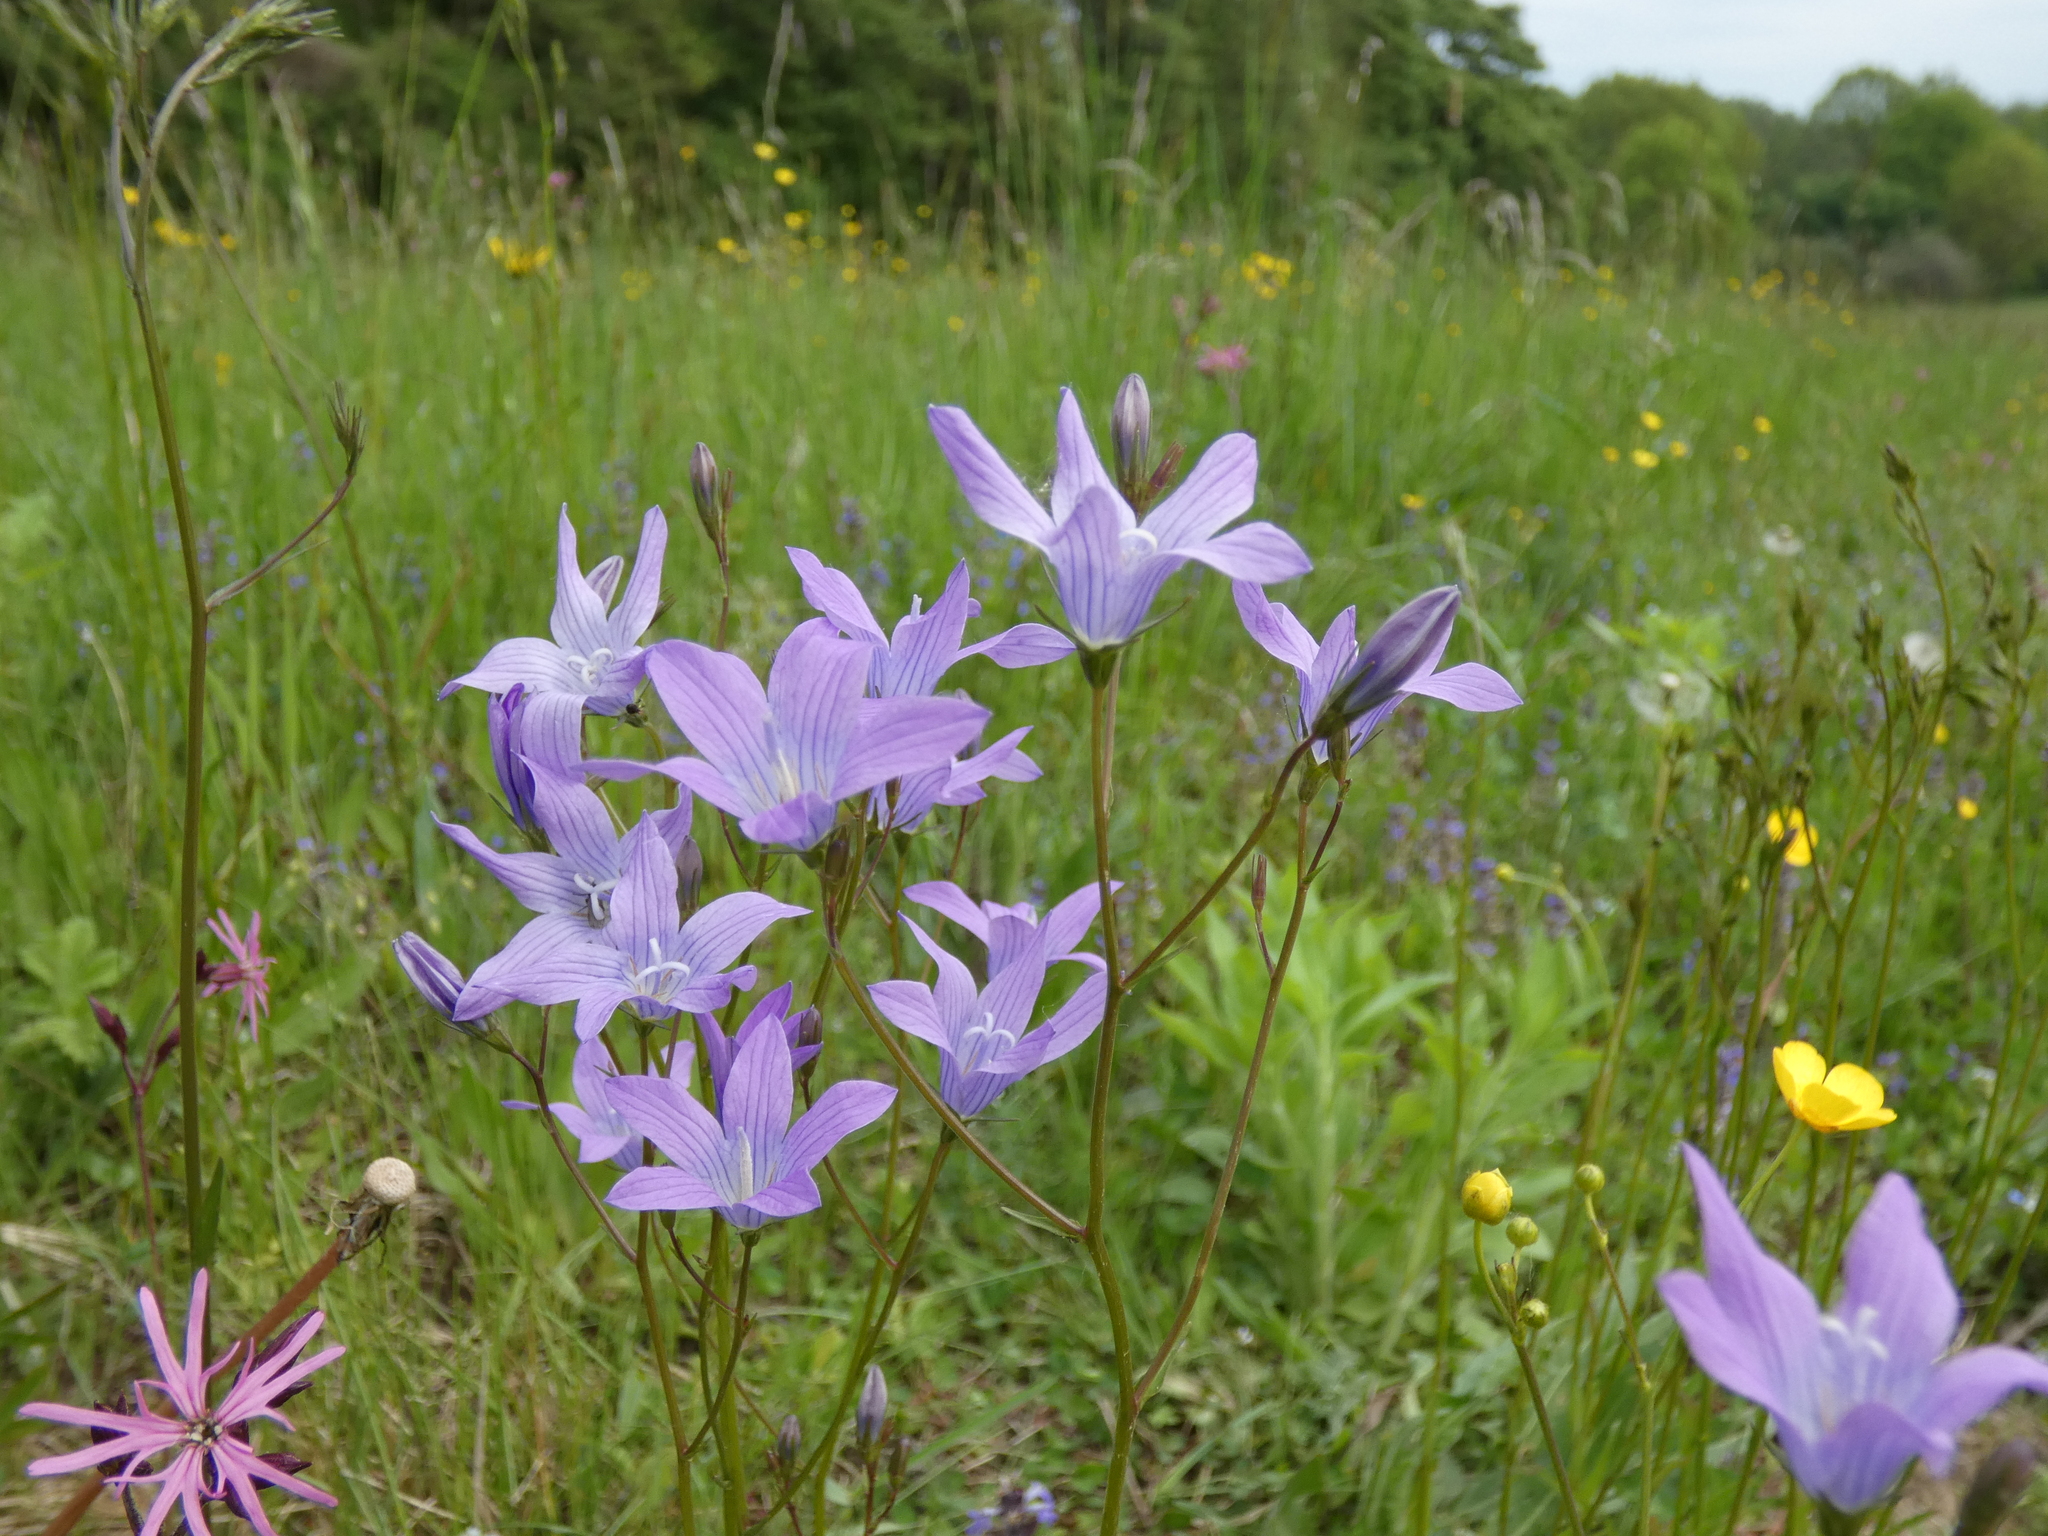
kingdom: Plantae
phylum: Tracheophyta
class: Magnoliopsida
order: Asterales
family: Campanulaceae
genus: Campanula
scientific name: Campanula patula
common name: Spreading bellflower
